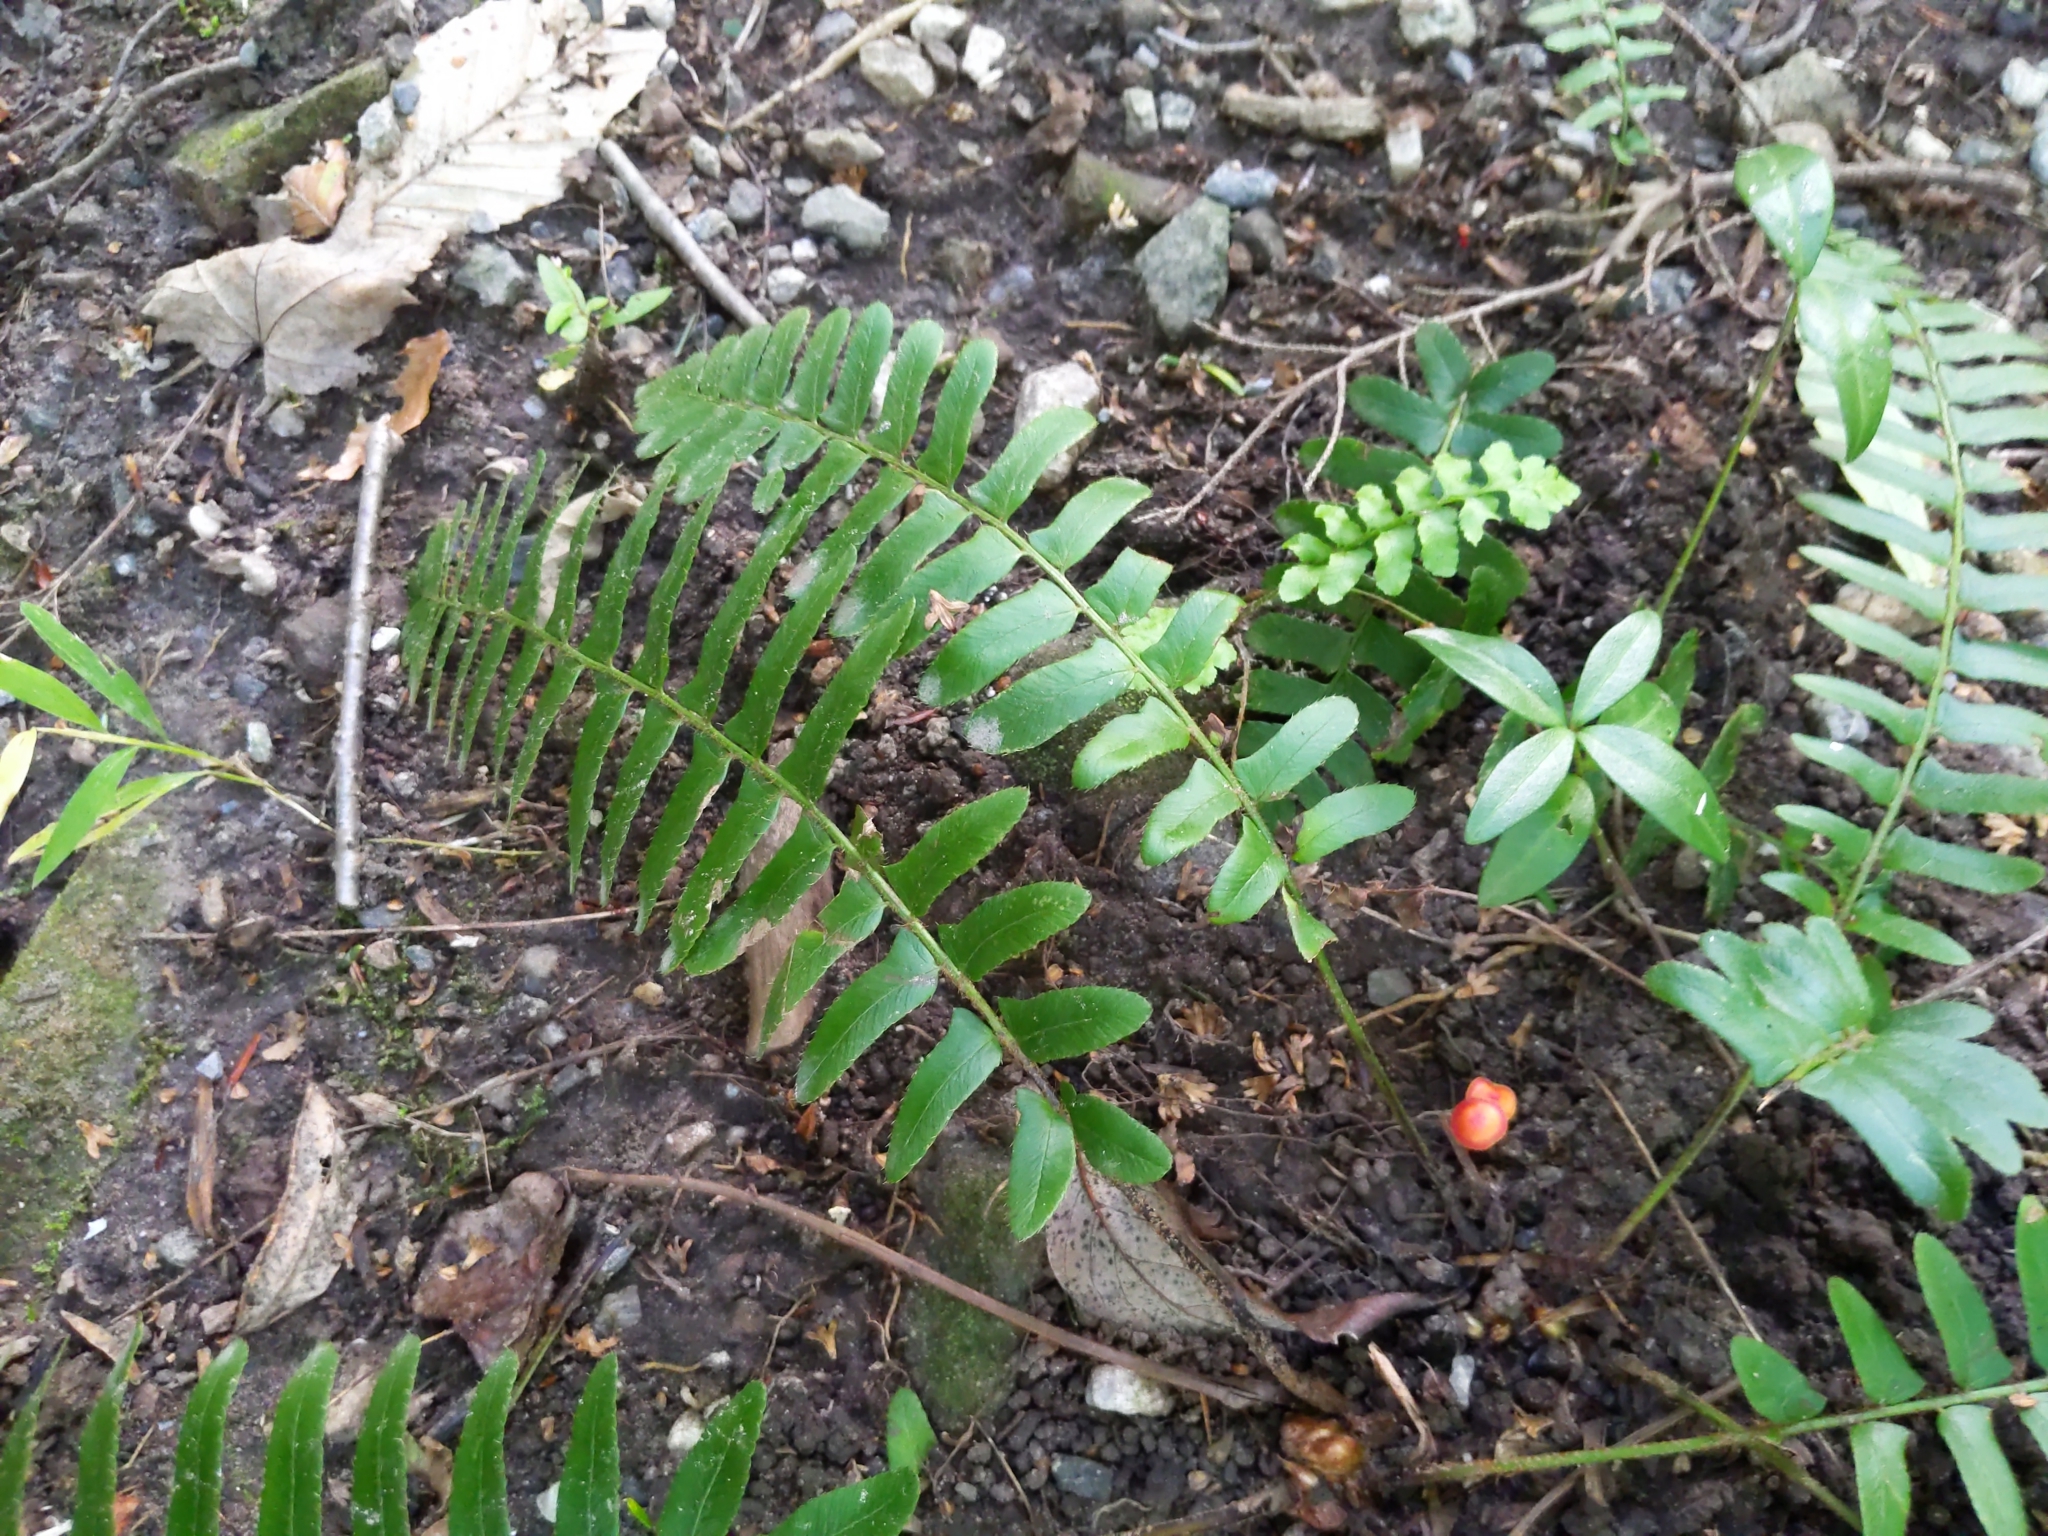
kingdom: Plantae
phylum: Tracheophyta
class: Polypodiopsida
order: Polypodiales
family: Dryopteridaceae
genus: Polystichum
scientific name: Polystichum acrostichoides
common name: Christmas fern
